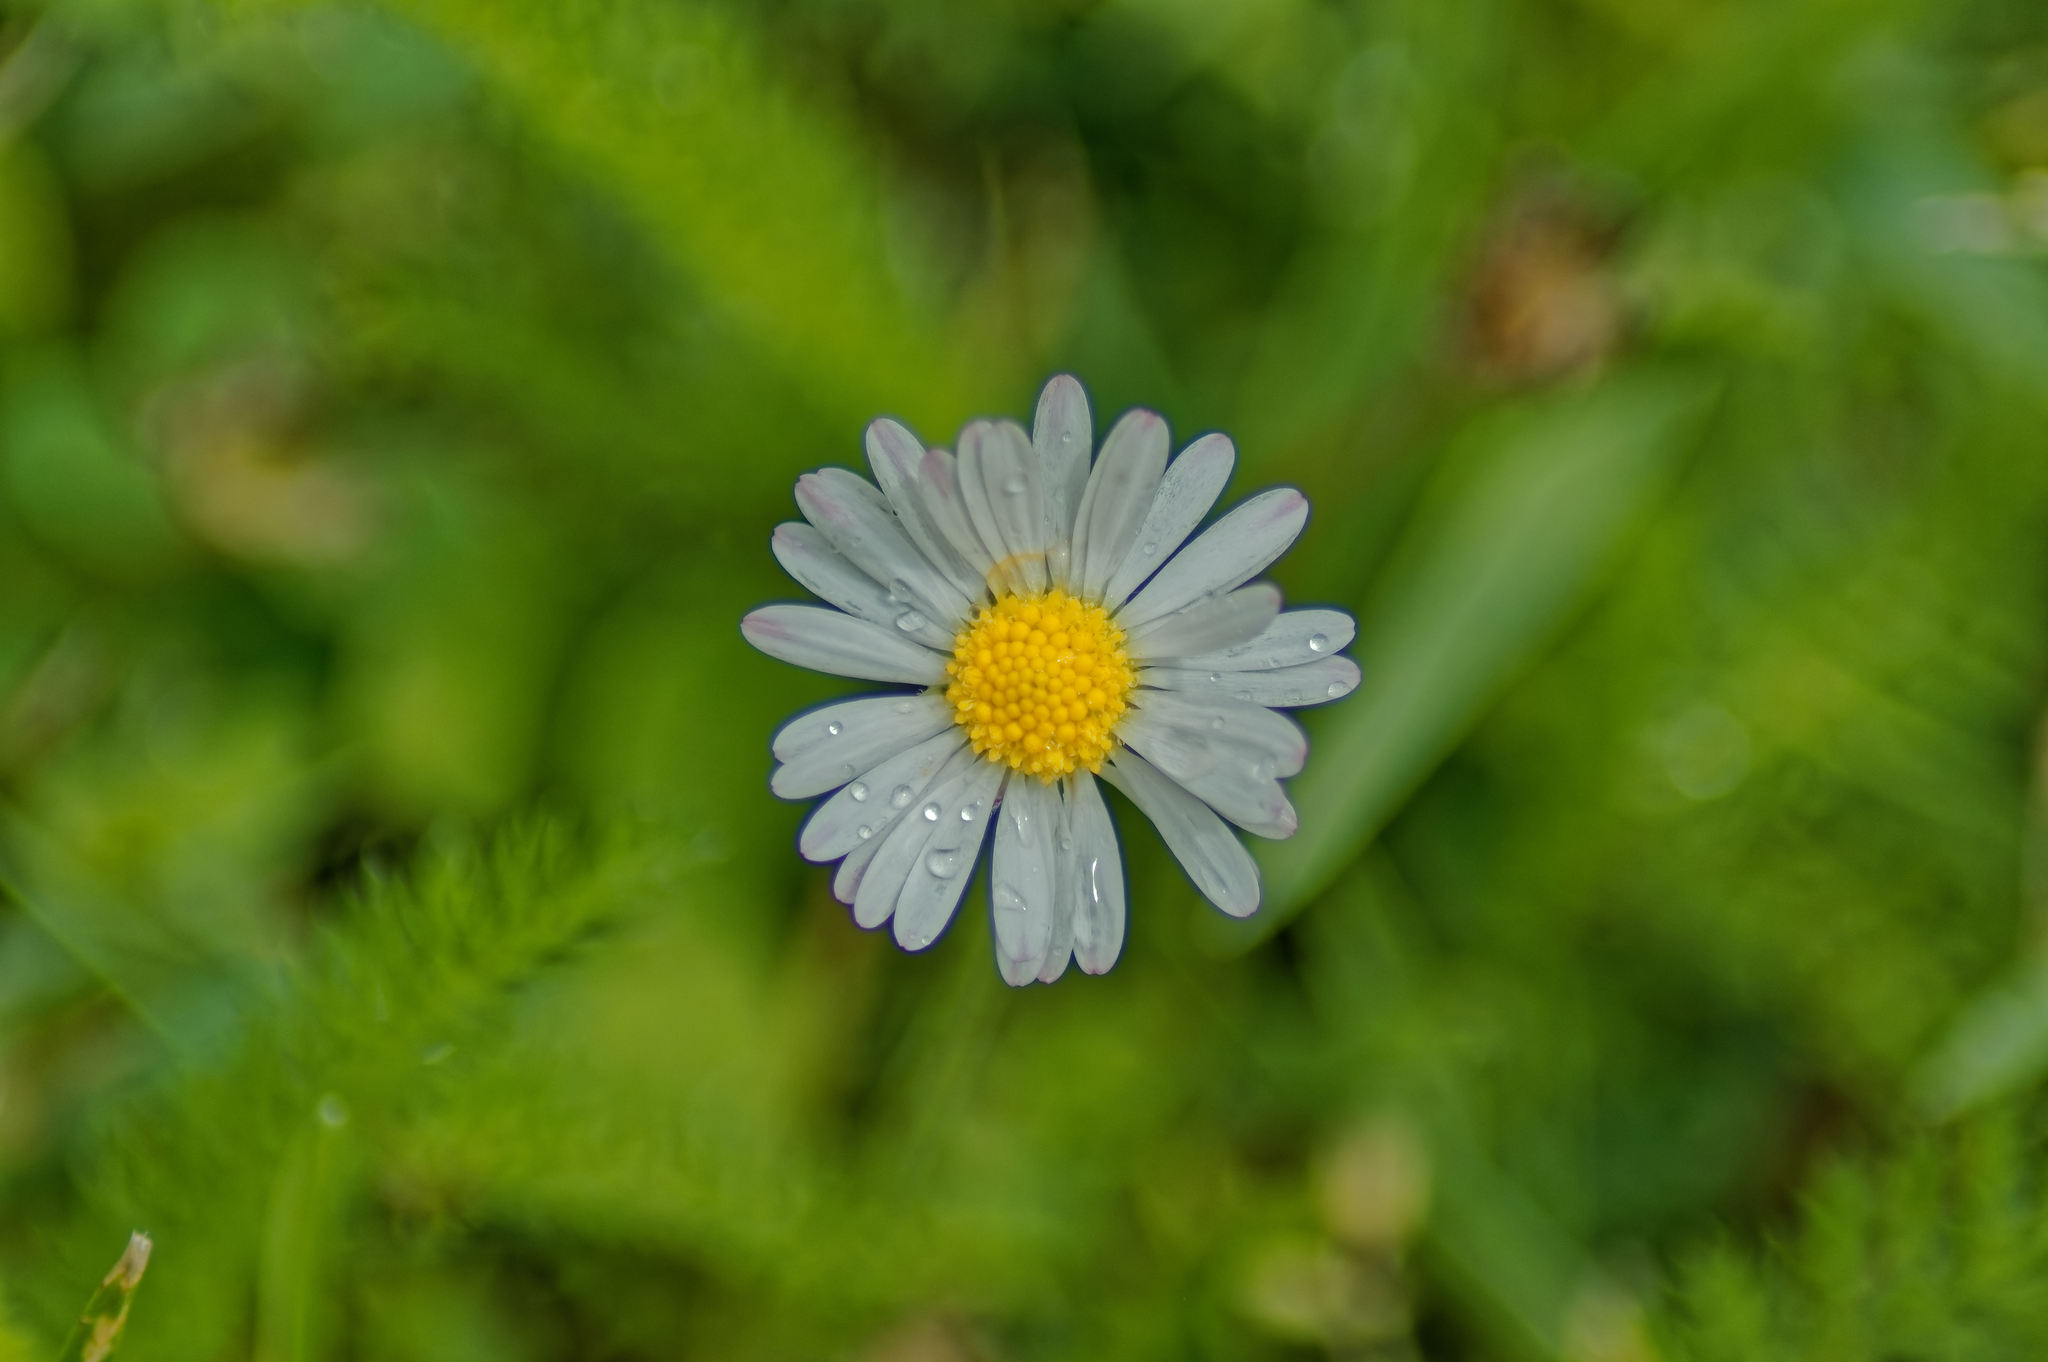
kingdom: Plantae
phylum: Tracheophyta
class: Magnoliopsida
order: Asterales
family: Asteraceae
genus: Bellis
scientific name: Bellis perennis
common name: Lawndaisy
